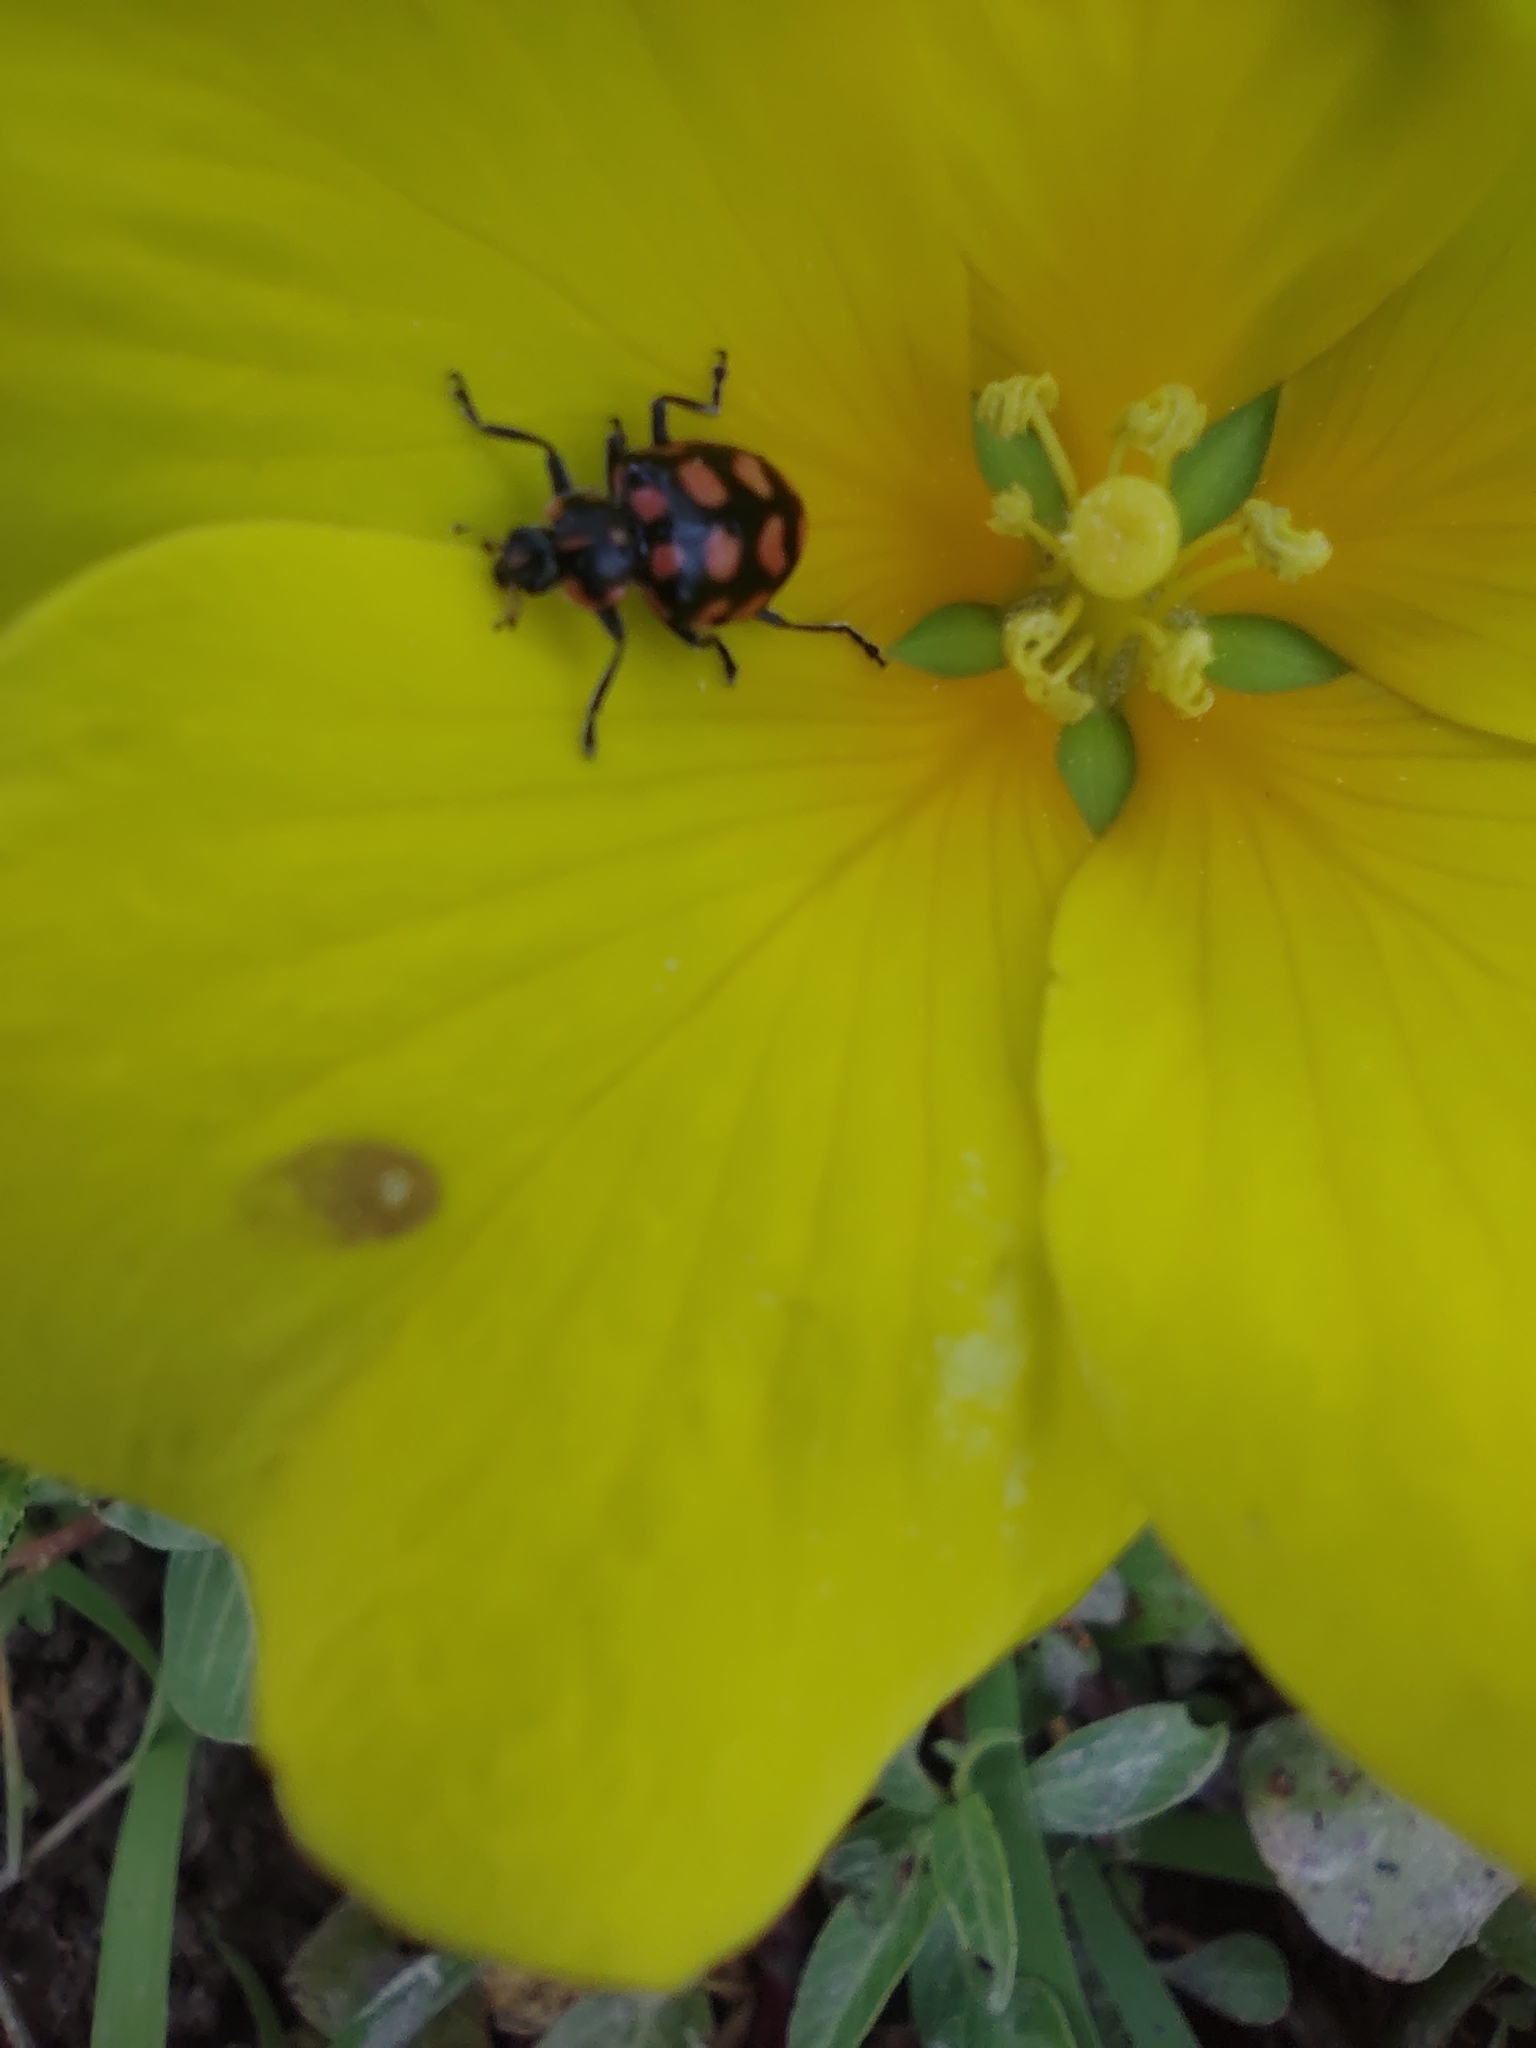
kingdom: Animalia
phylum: Arthropoda
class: Insecta
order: Coleoptera
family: Coccinellidae
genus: Coleomegilla
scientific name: Coleomegilla
